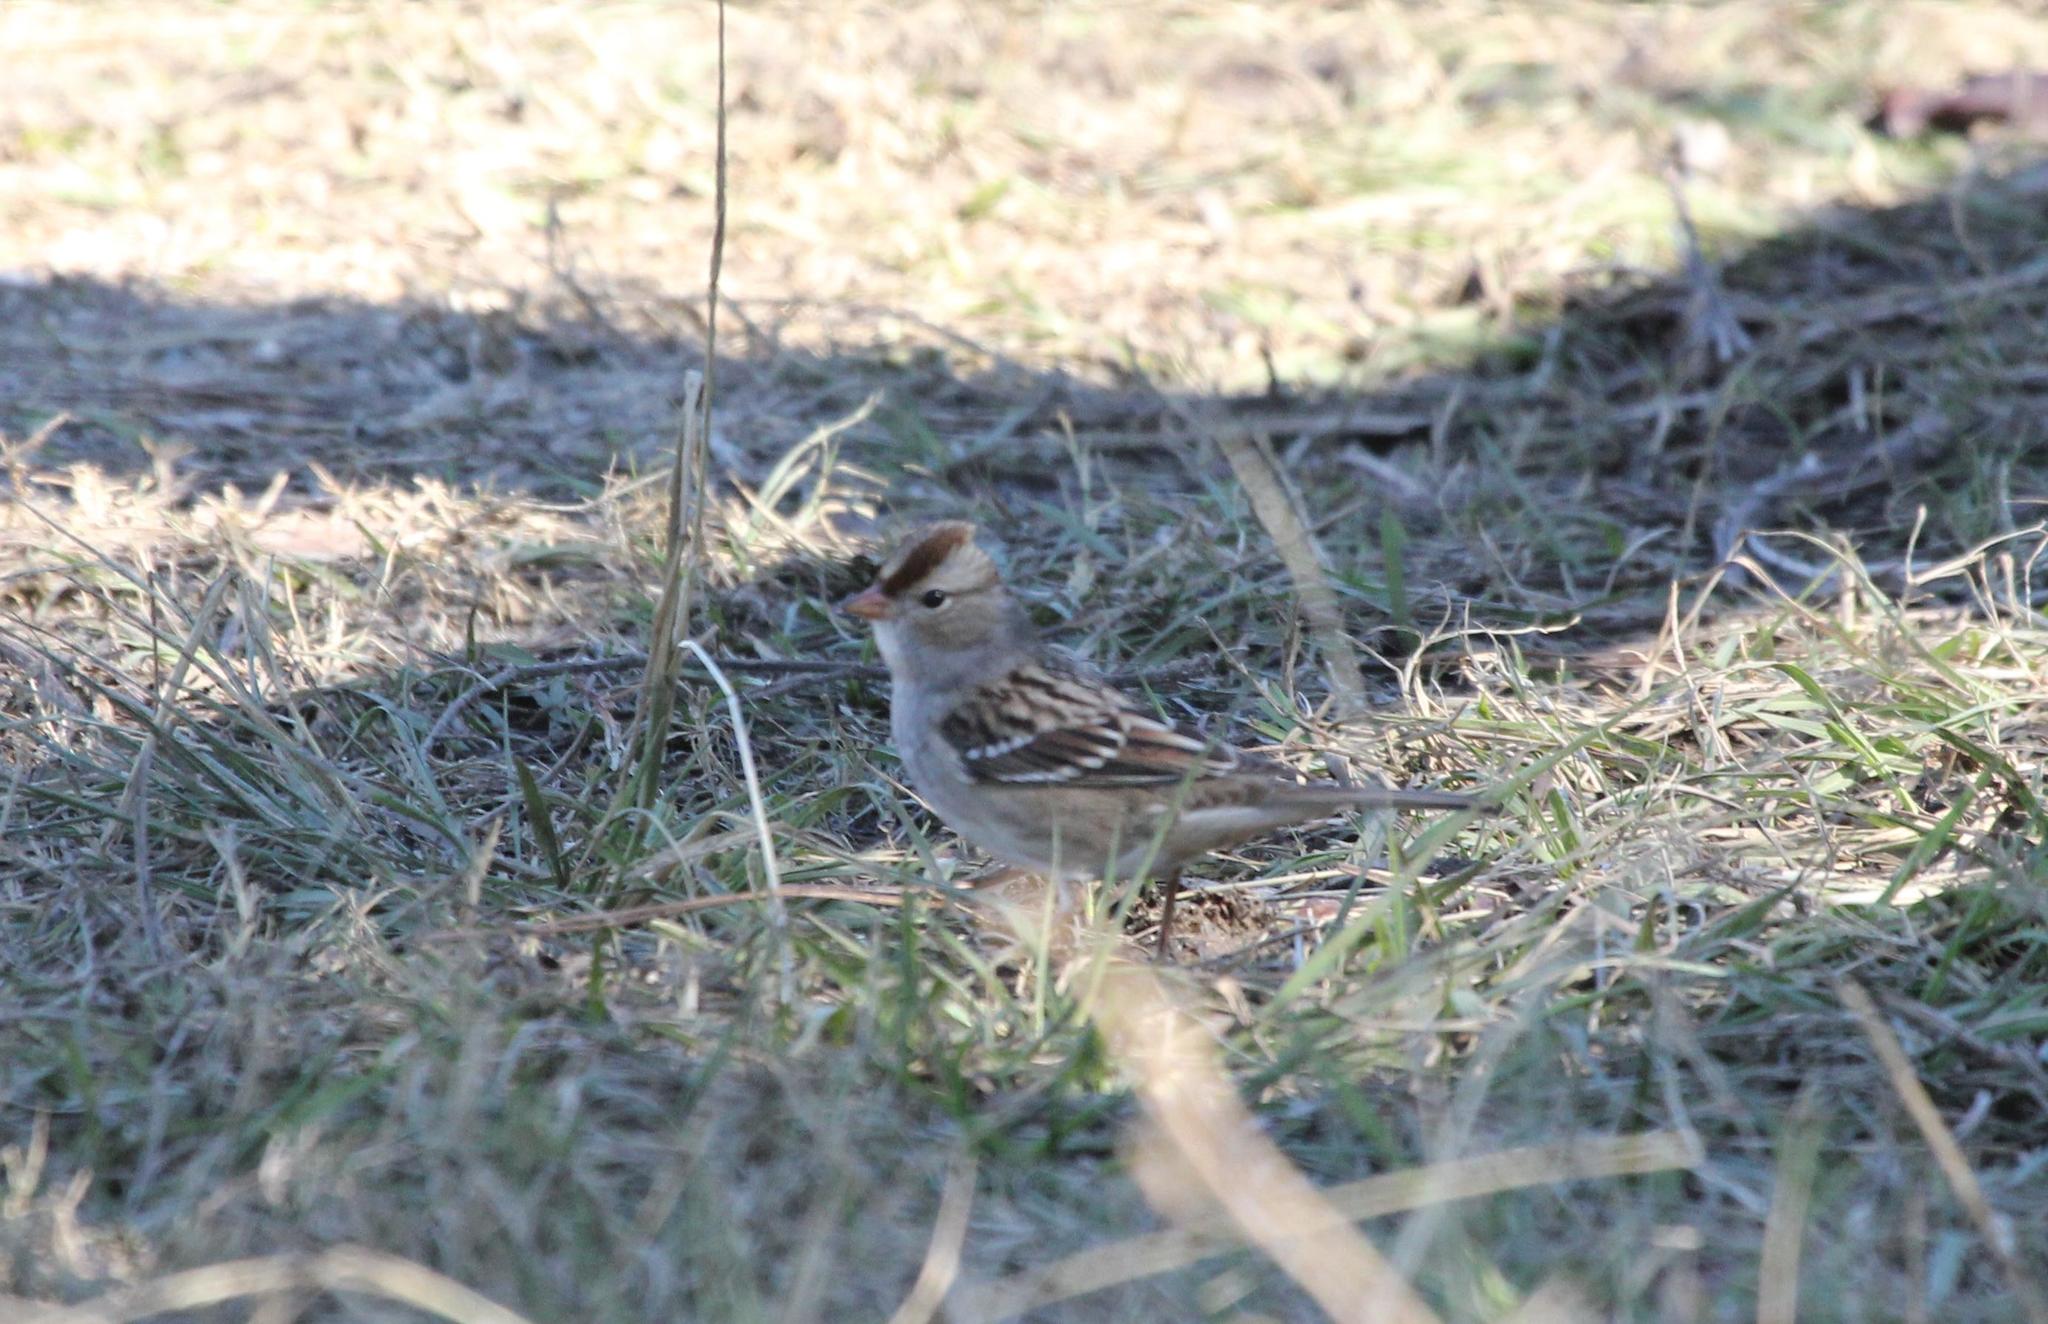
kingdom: Animalia
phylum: Chordata
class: Aves
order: Passeriformes
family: Passerellidae
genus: Zonotrichia
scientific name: Zonotrichia leucophrys
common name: White-crowned sparrow
